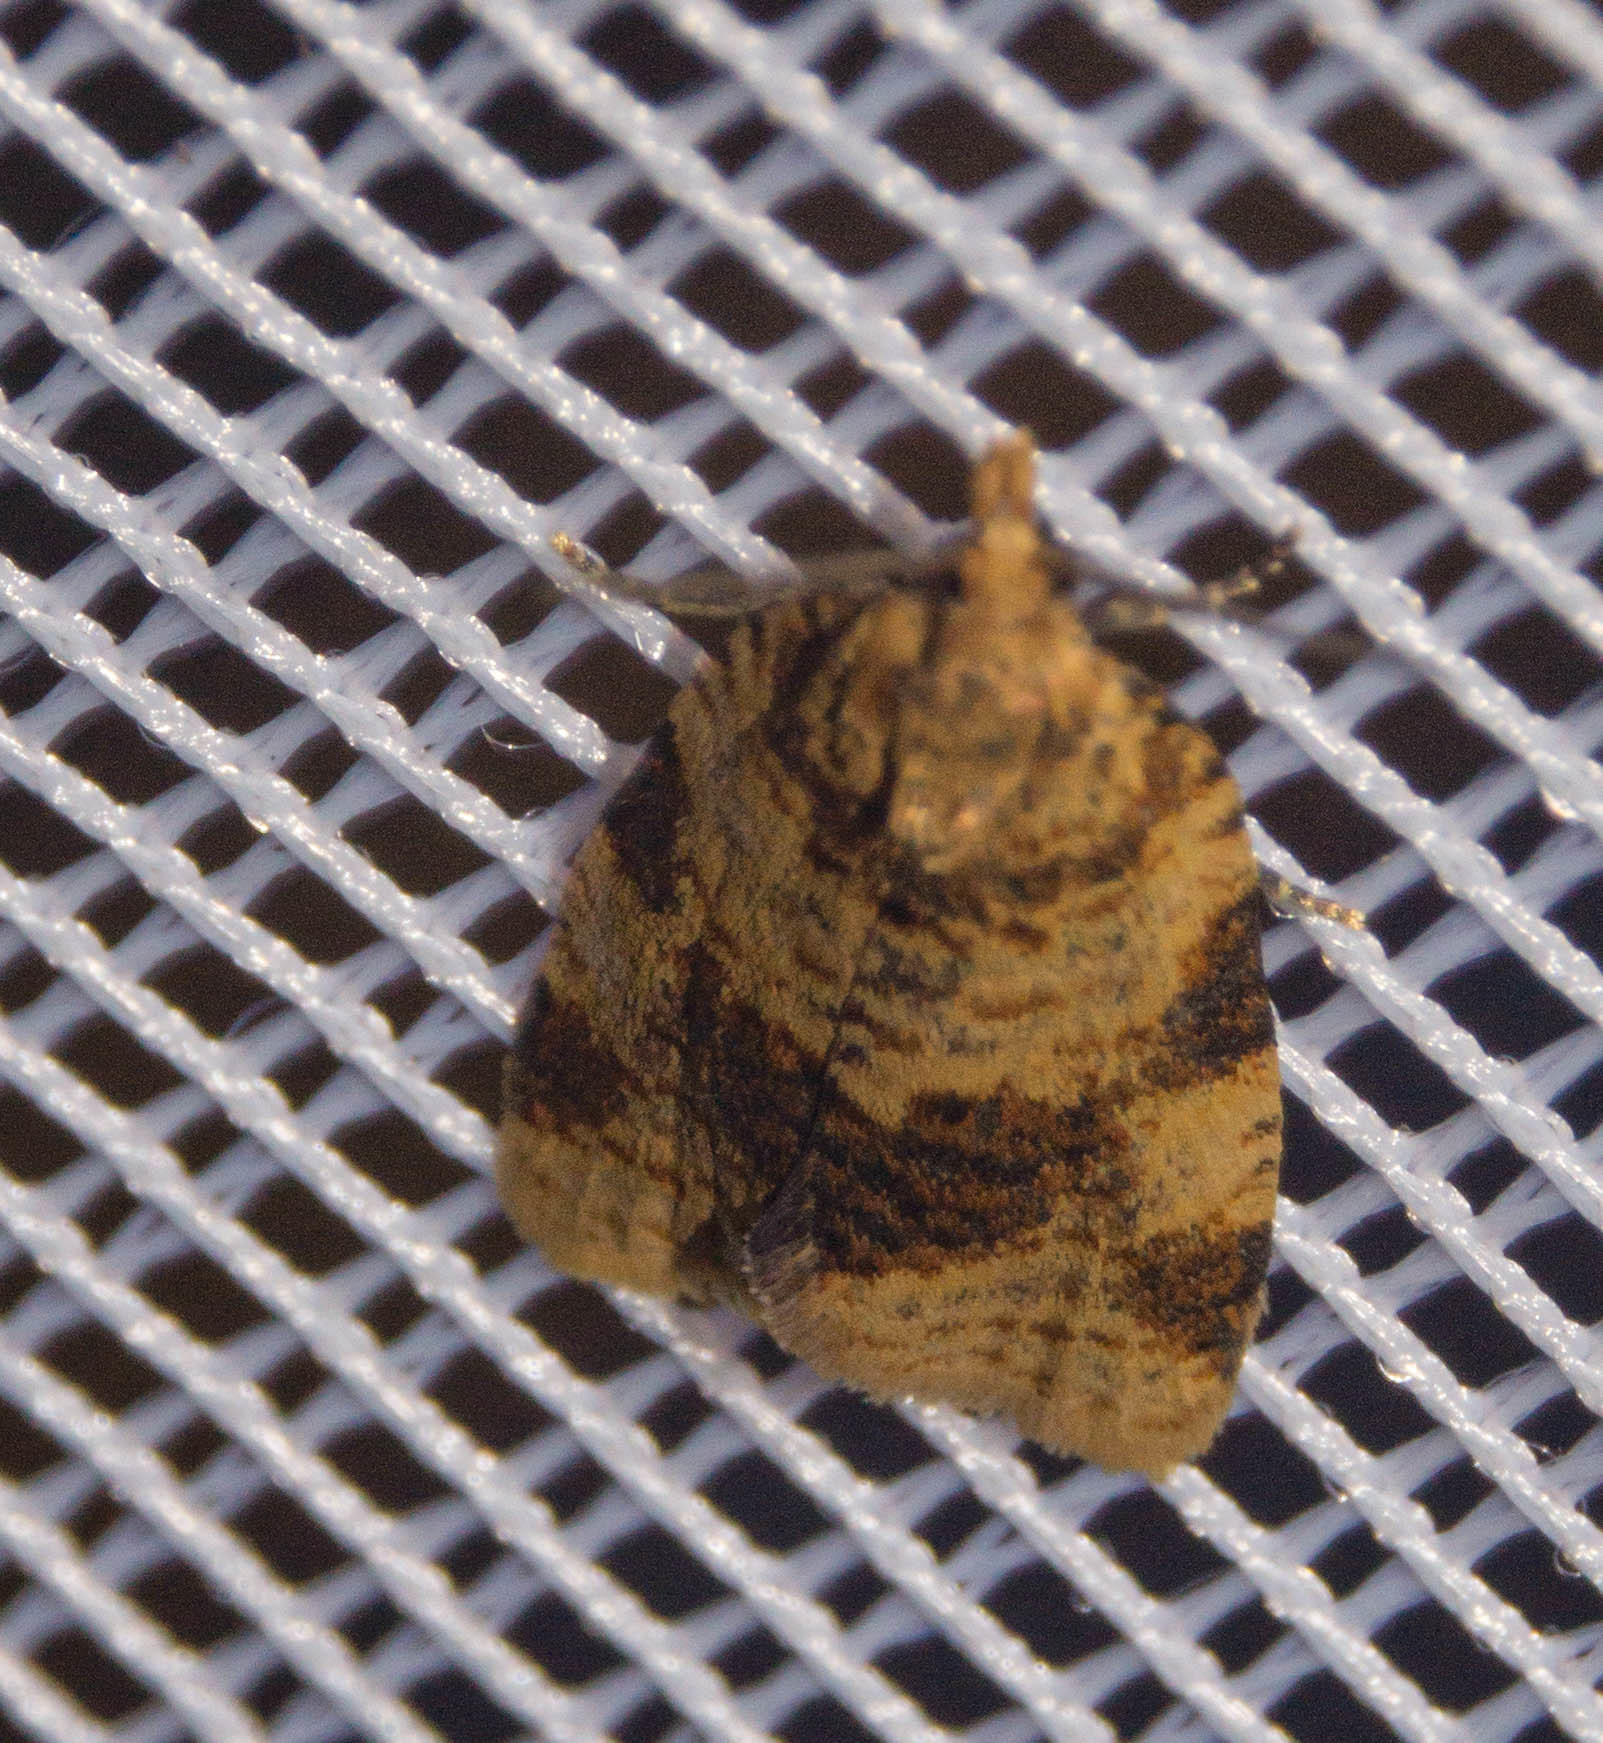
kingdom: Animalia
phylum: Arthropoda
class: Insecta
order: Lepidoptera
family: Tortricidae
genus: Epagoge
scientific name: Epagoge grotiana
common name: Brown-barred twist
